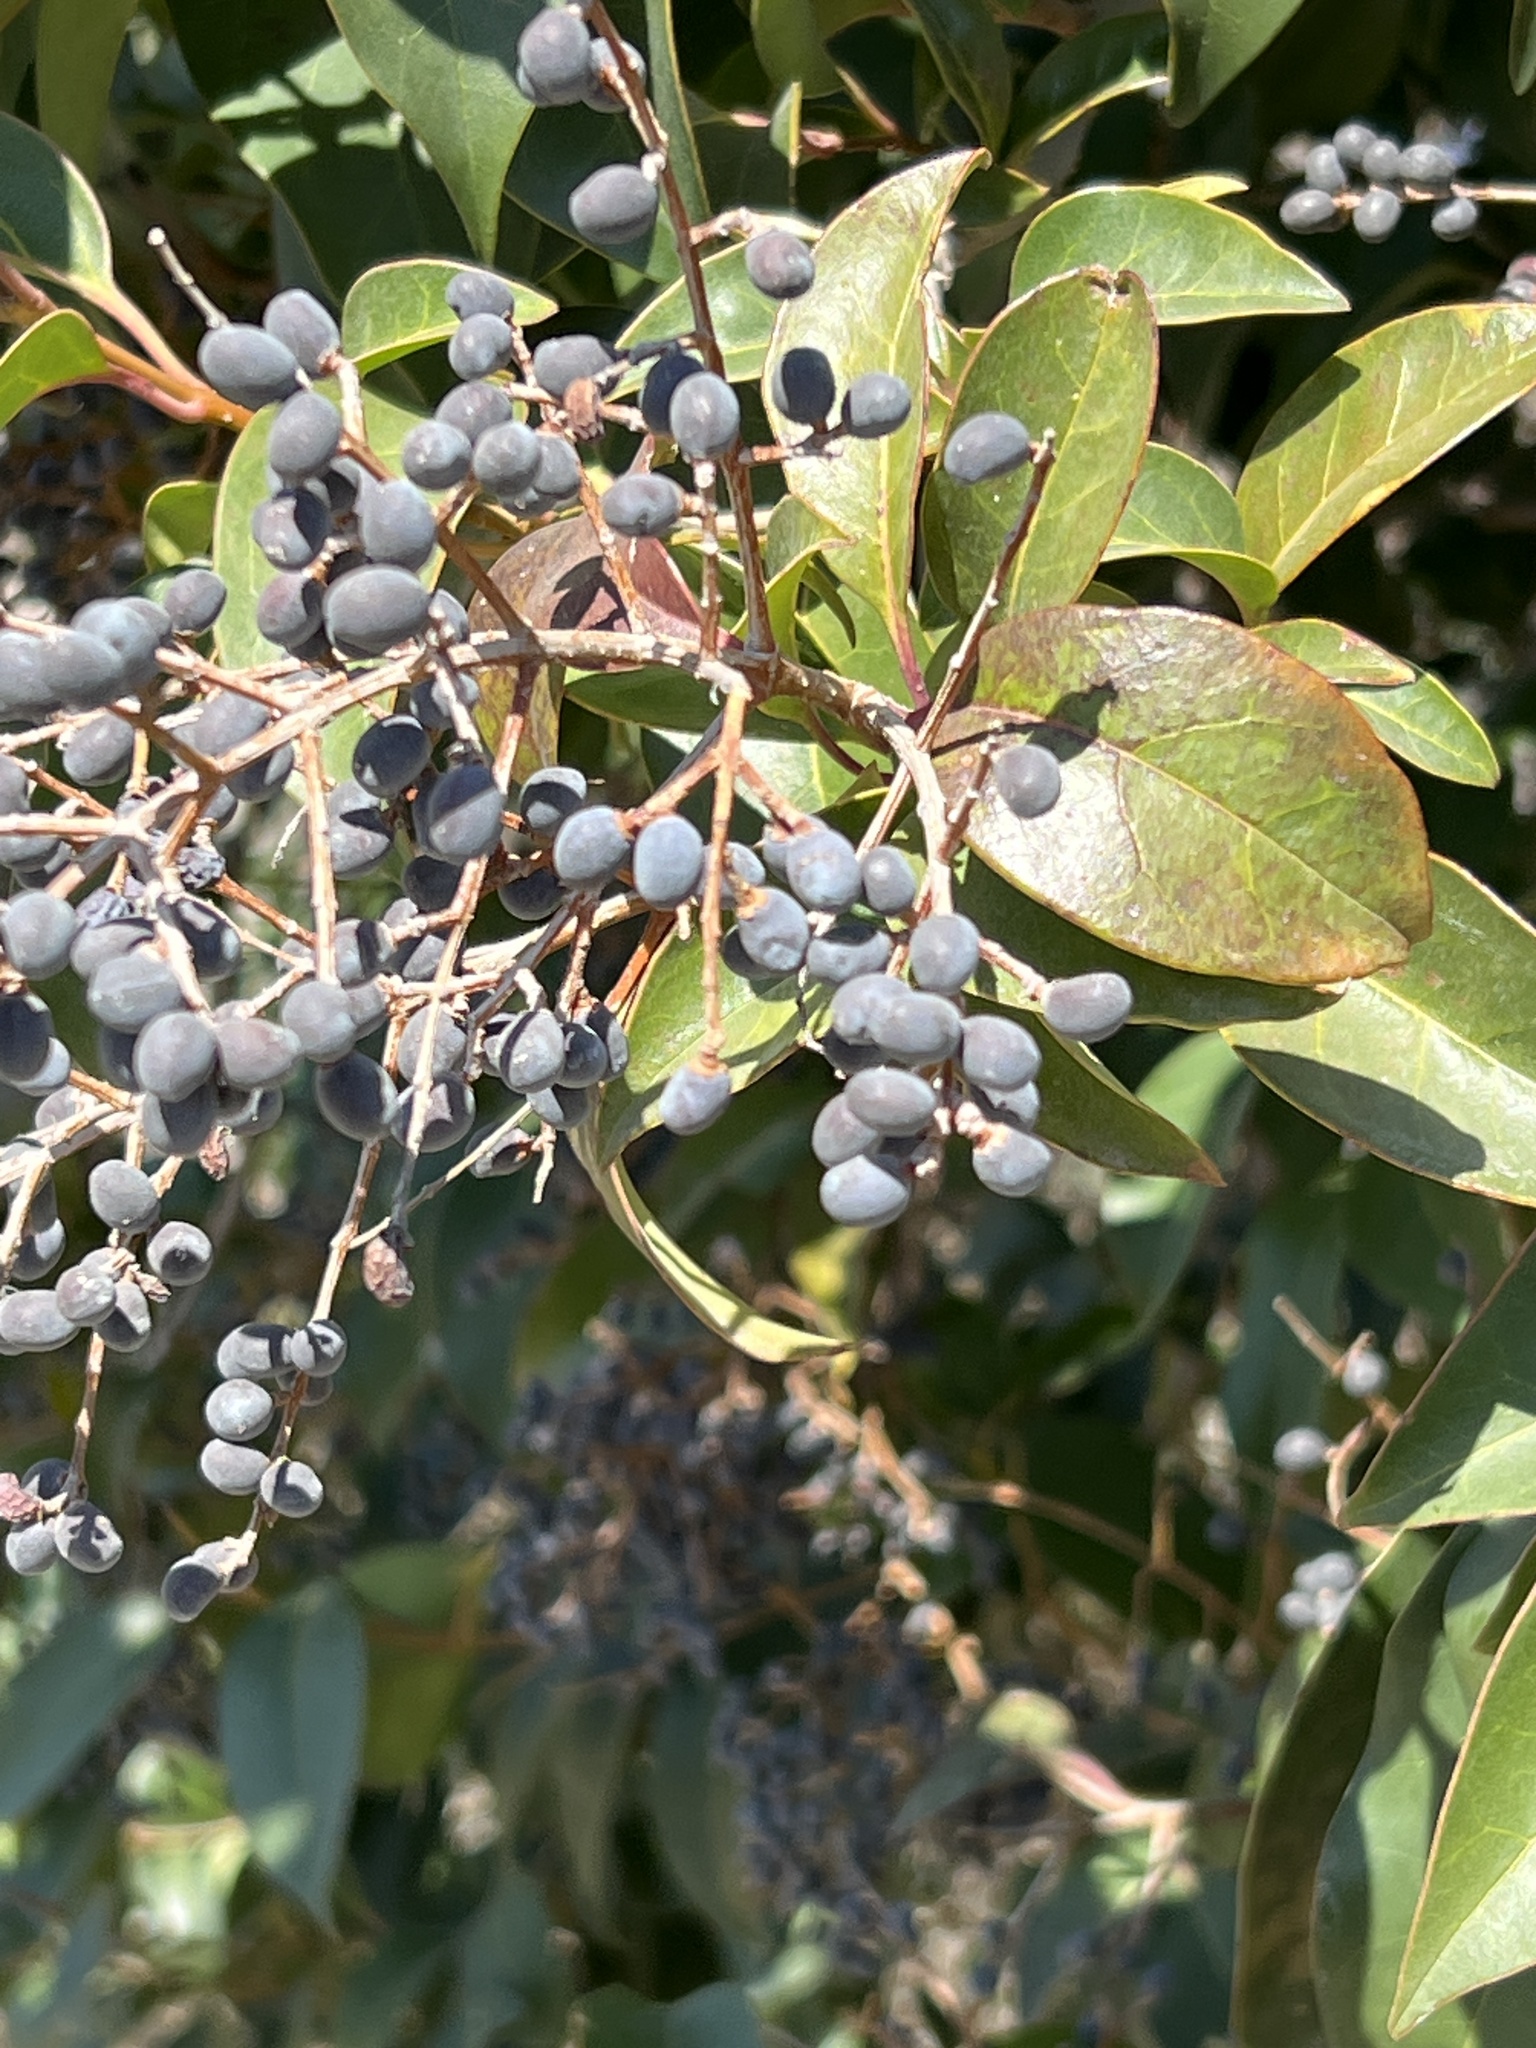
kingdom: Plantae
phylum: Tracheophyta
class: Magnoliopsida
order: Lamiales
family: Oleaceae
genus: Ligustrum
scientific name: Ligustrum lucidum
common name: Glossy privet
